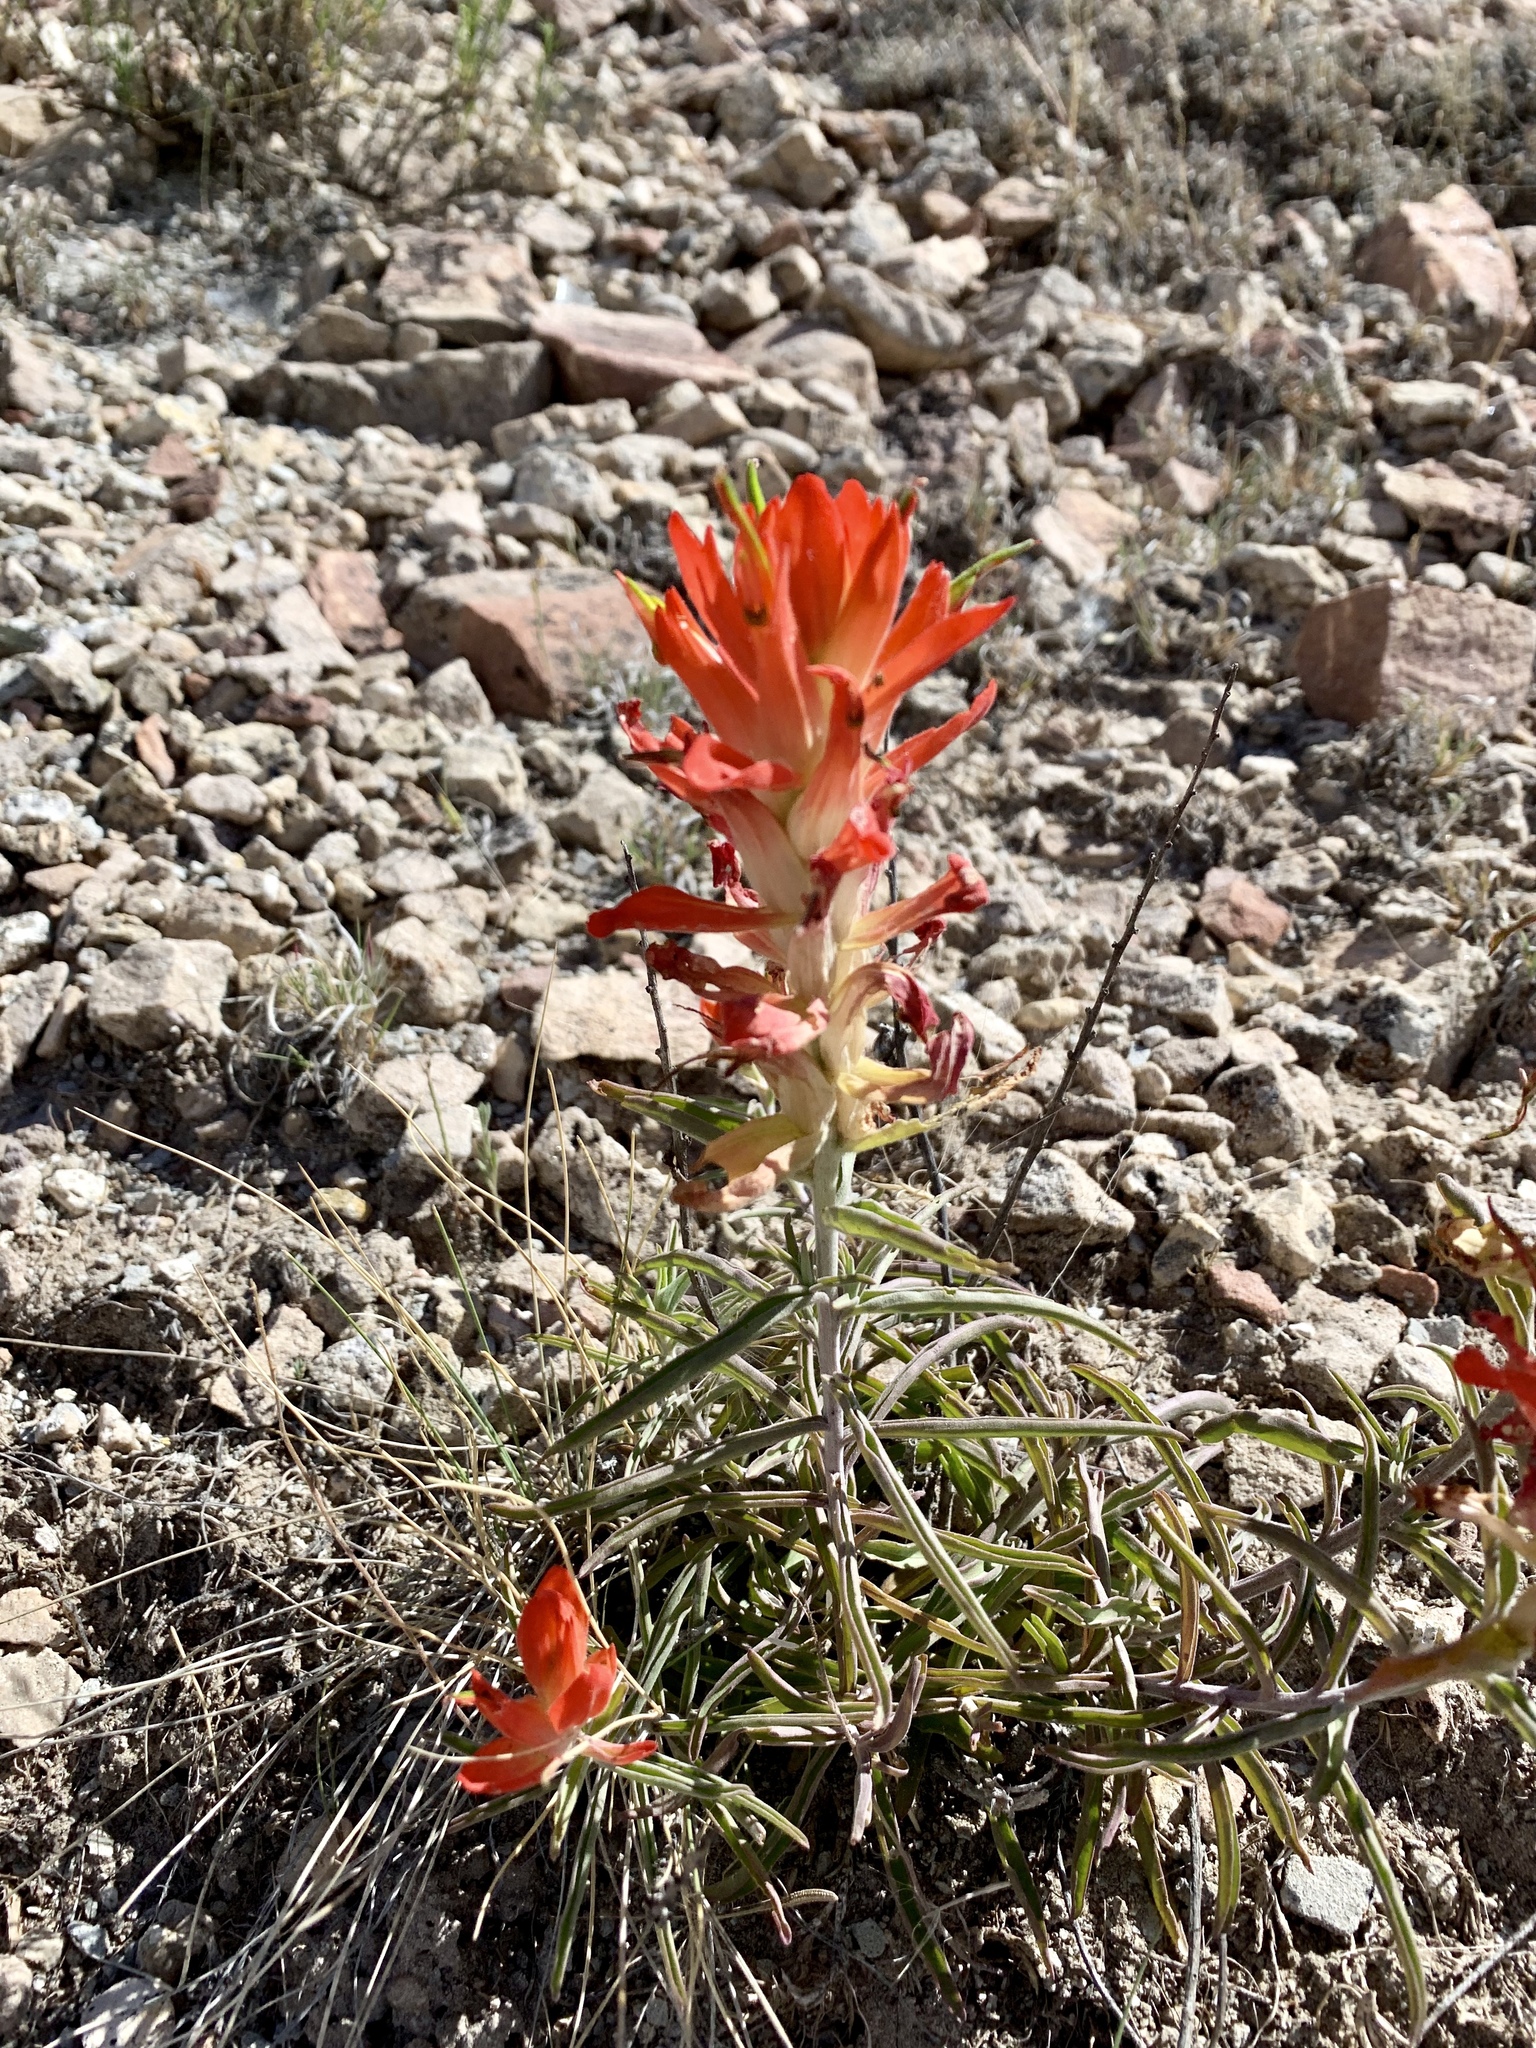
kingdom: Plantae
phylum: Tracheophyta
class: Magnoliopsida
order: Lamiales
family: Orobanchaceae
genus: Castilleja
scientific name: Castilleja integra
